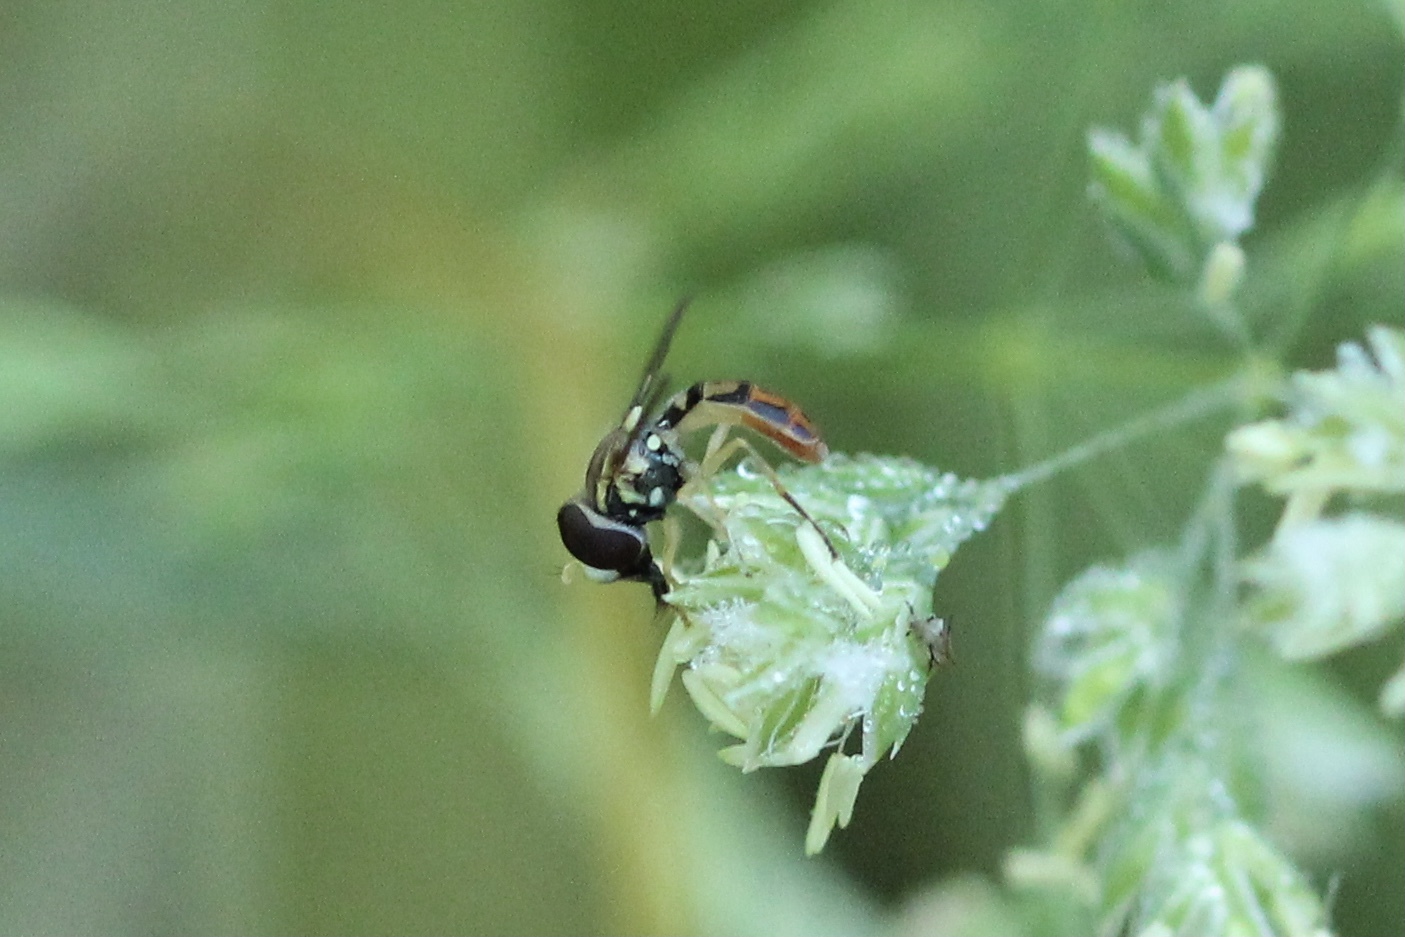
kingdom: Animalia
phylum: Arthropoda
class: Insecta
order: Diptera
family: Syrphidae
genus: Toxomerus
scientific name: Toxomerus marginatus
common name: Syrphid fly
